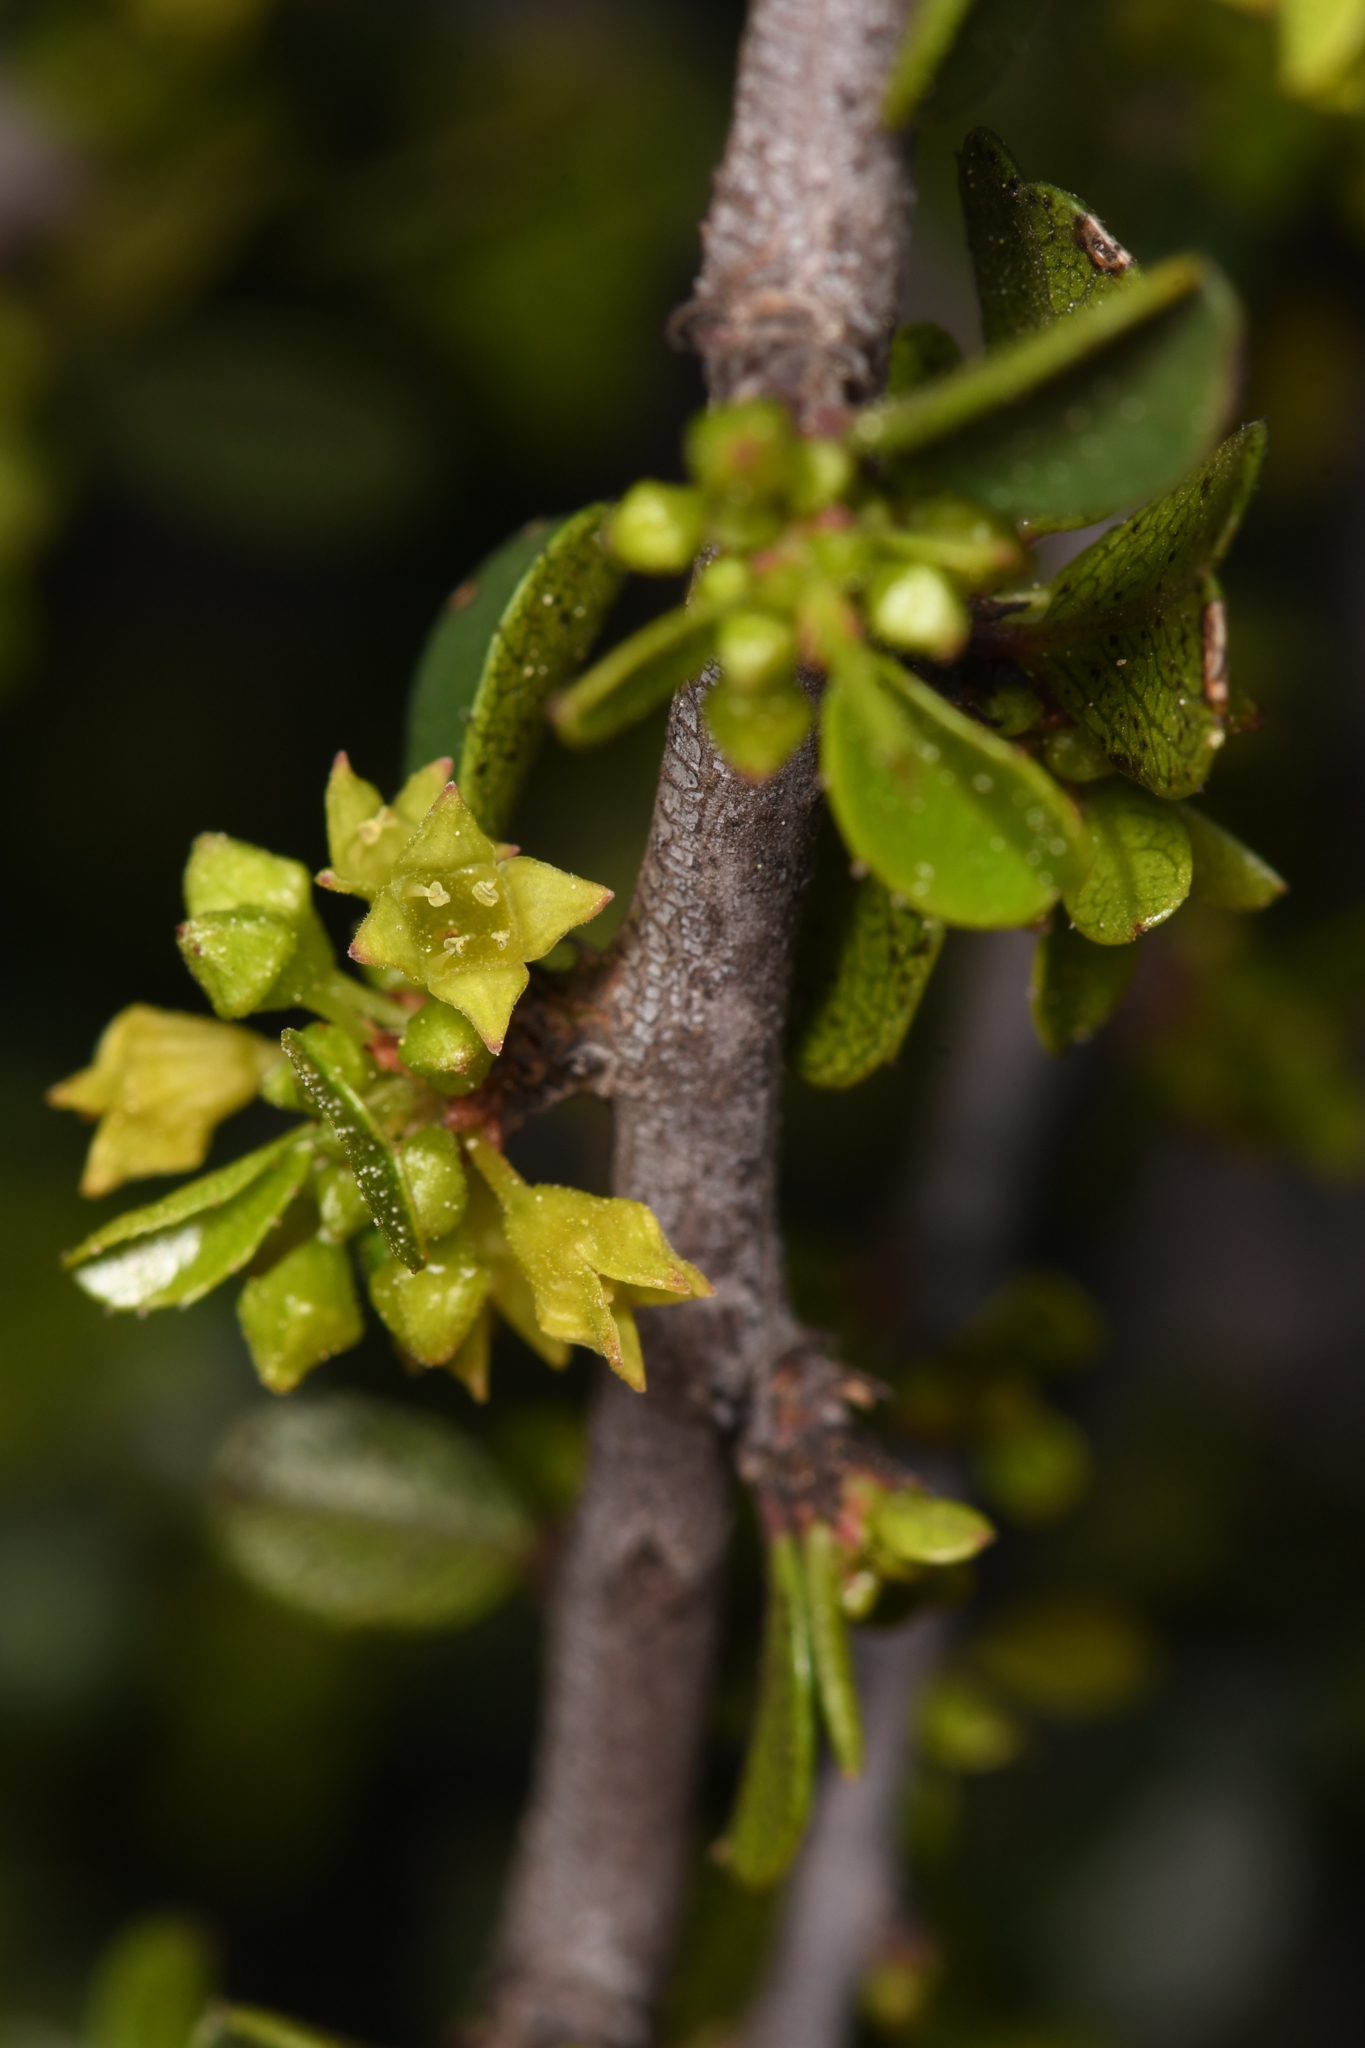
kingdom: Plantae
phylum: Tracheophyta
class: Magnoliopsida
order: Rosales
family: Rhamnaceae
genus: Endotropis
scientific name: Endotropis crocea
